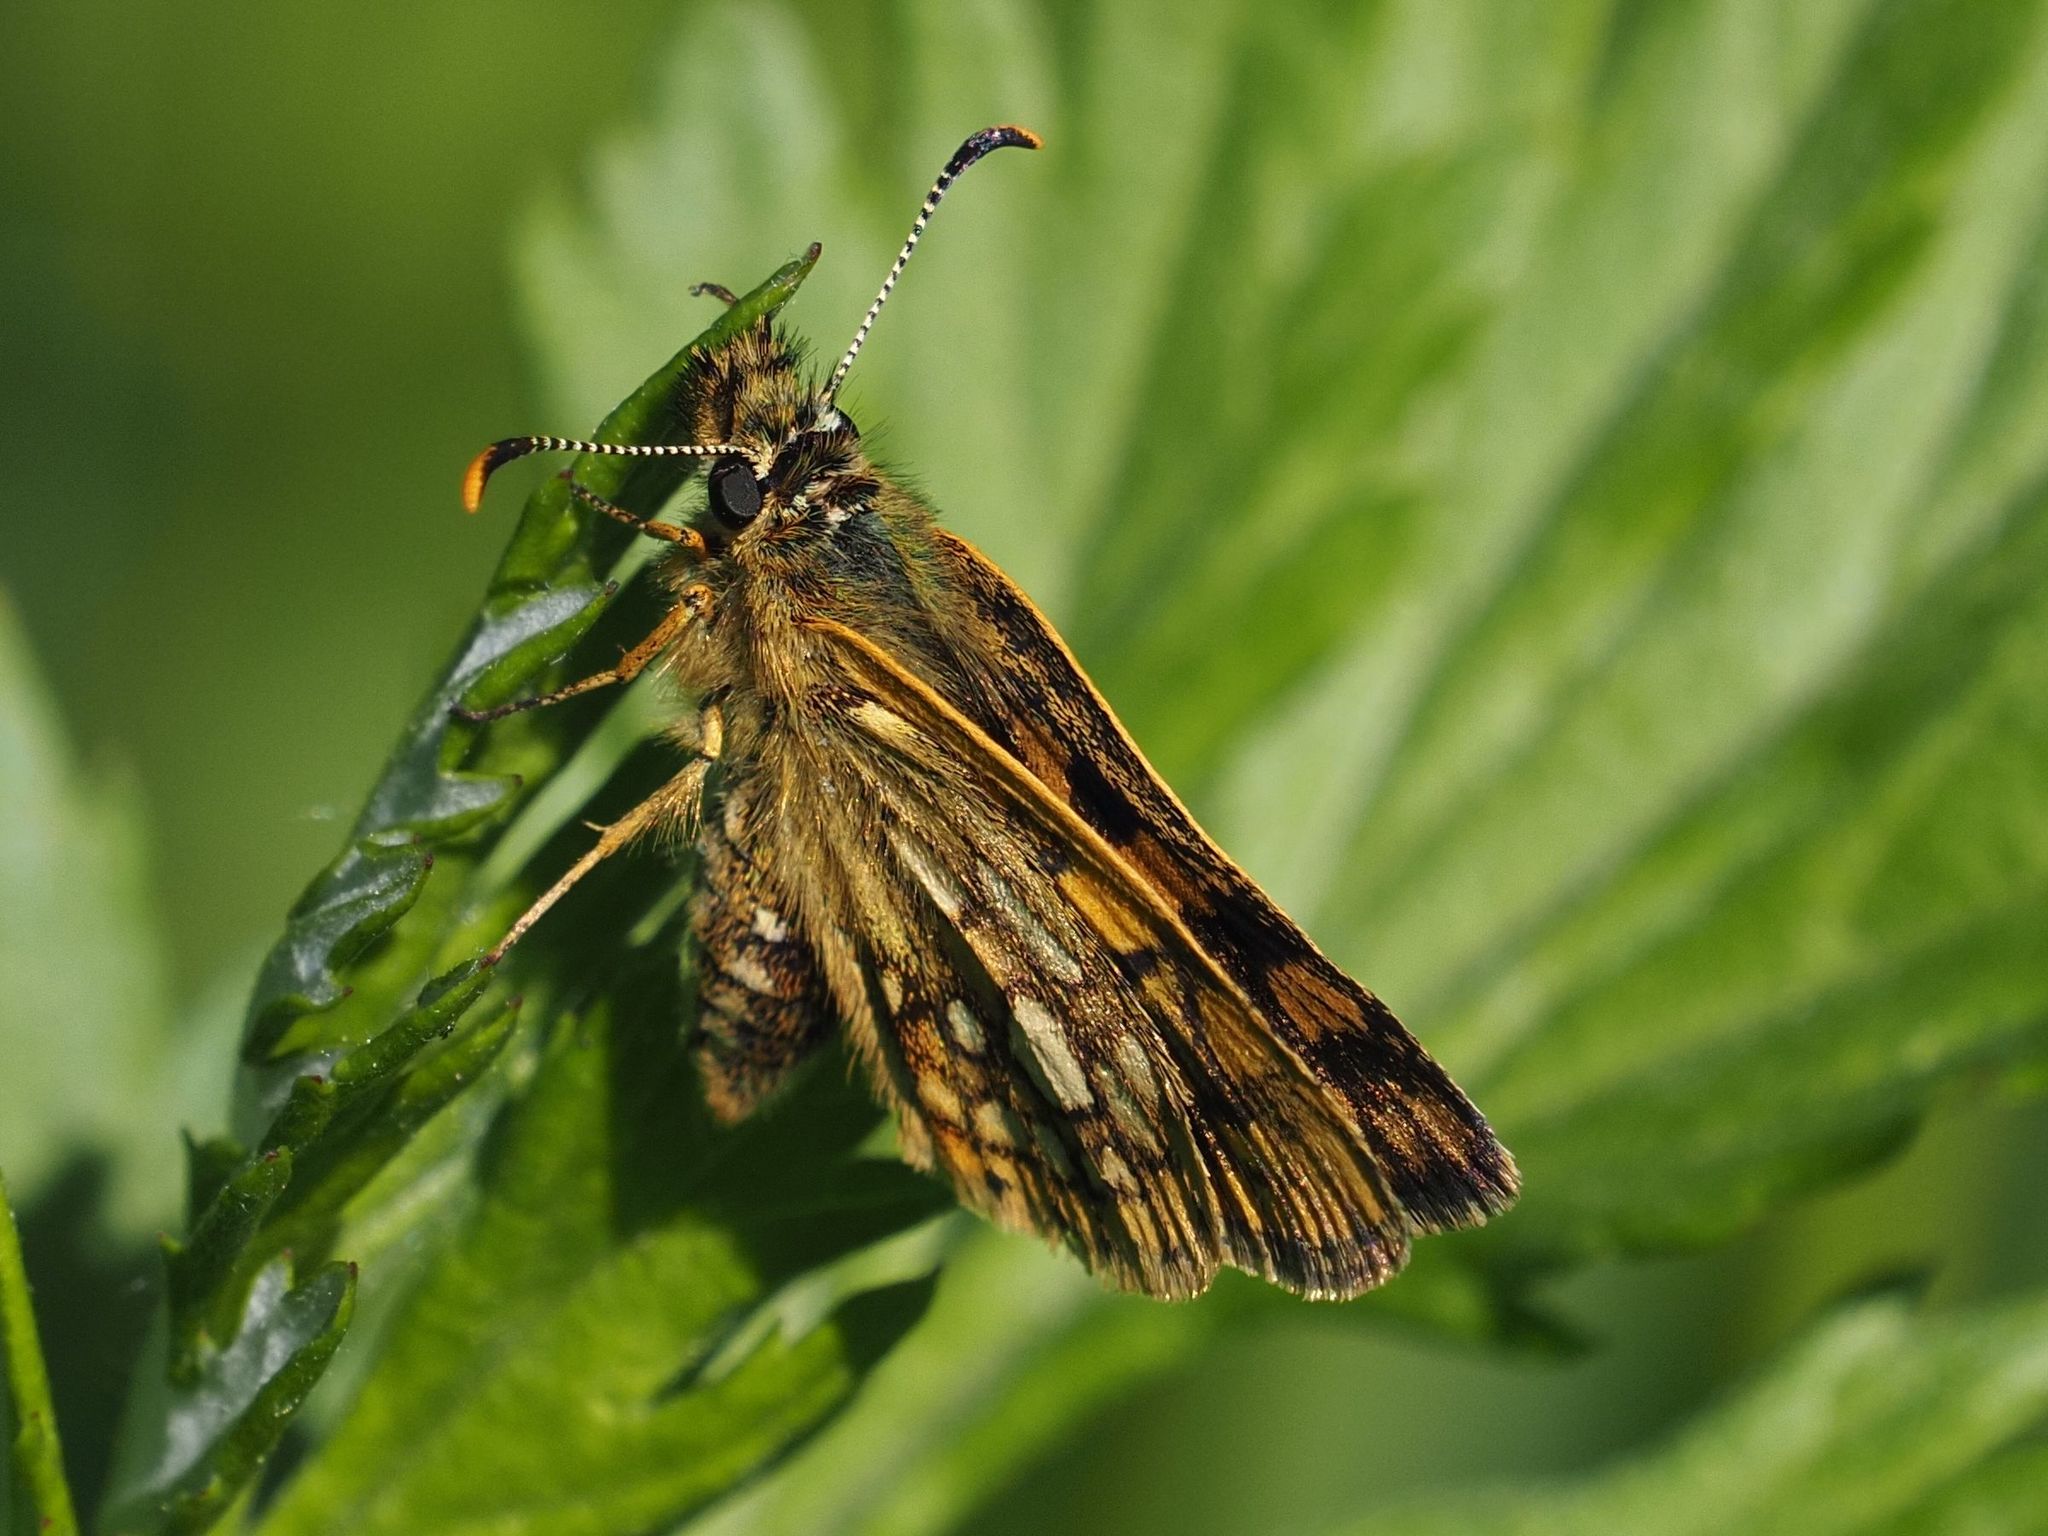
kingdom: Animalia
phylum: Arthropoda
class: Insecta
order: Lepidoptera
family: Hesperiidae
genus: Carterocephalus
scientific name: Carterocephalus palaemon
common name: Chequered skipper
